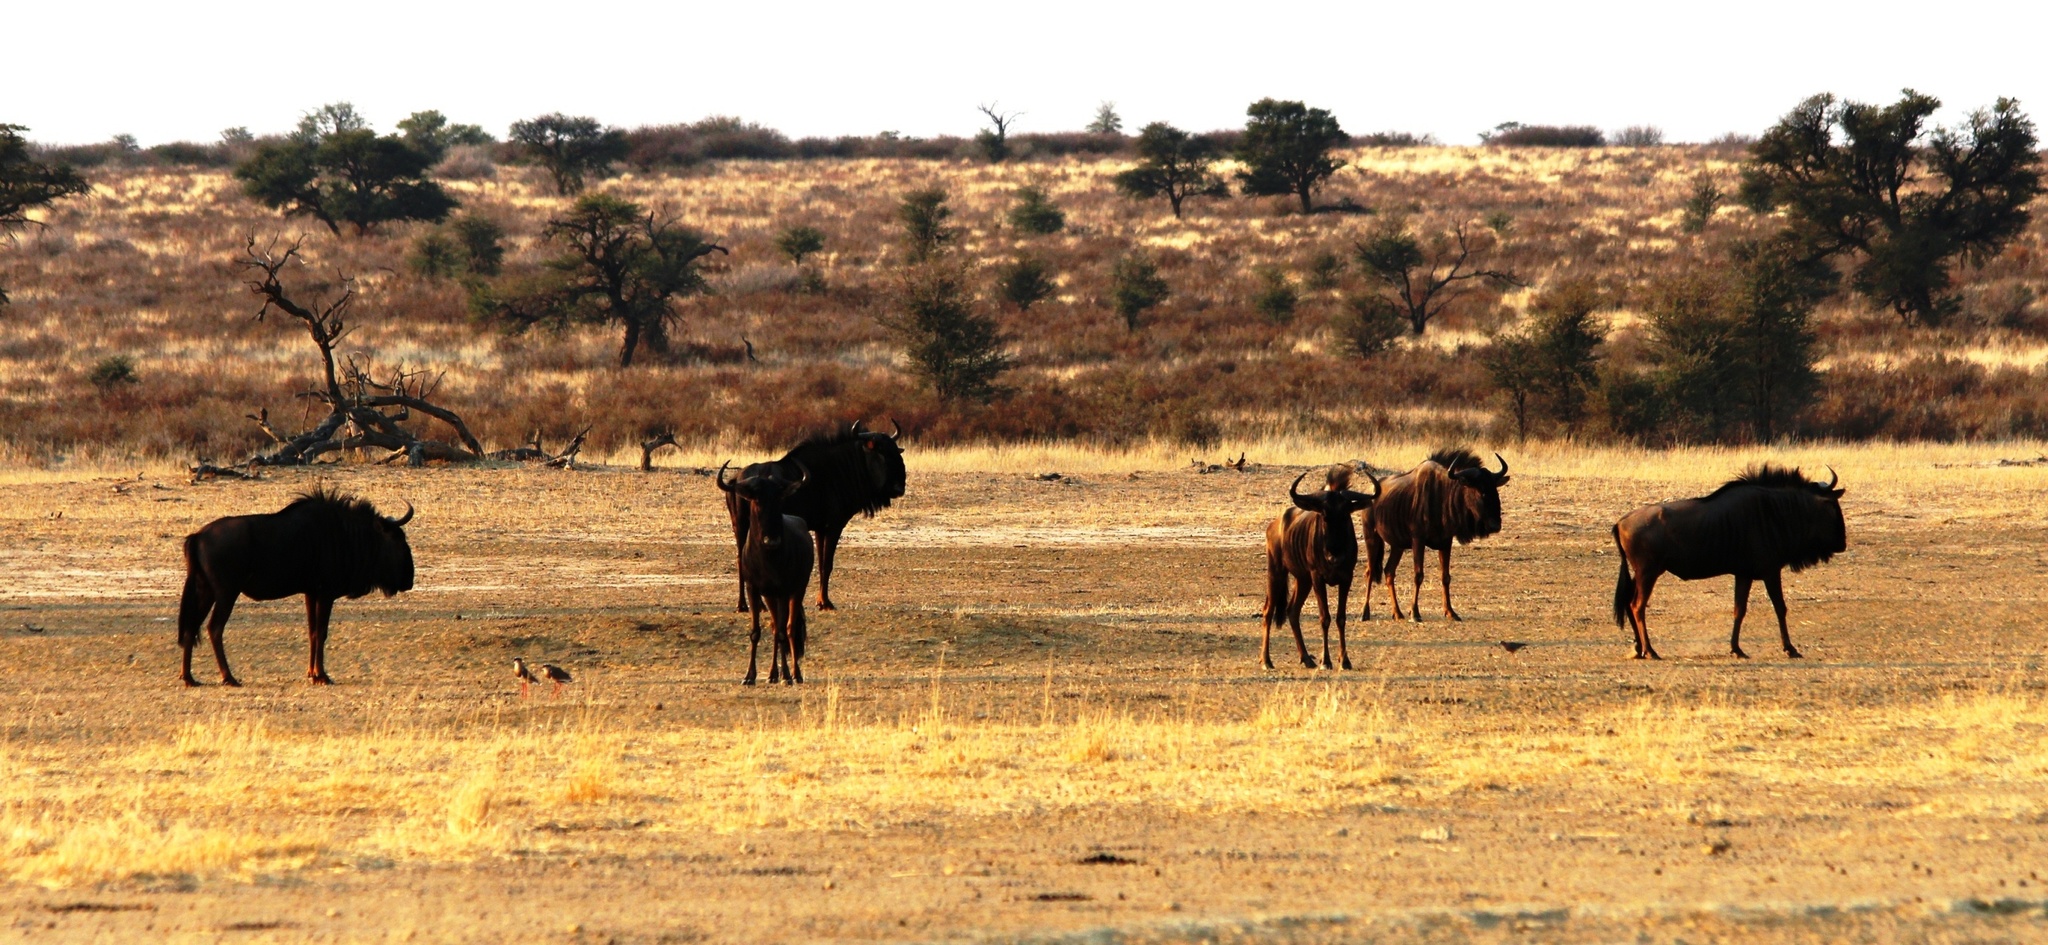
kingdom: Animalia
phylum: Chordata
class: Mammalia
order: Artiodactyla
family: Bovidae
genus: Connochaetes
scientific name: Connochaetes taurinus
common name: Blue wildebeest
